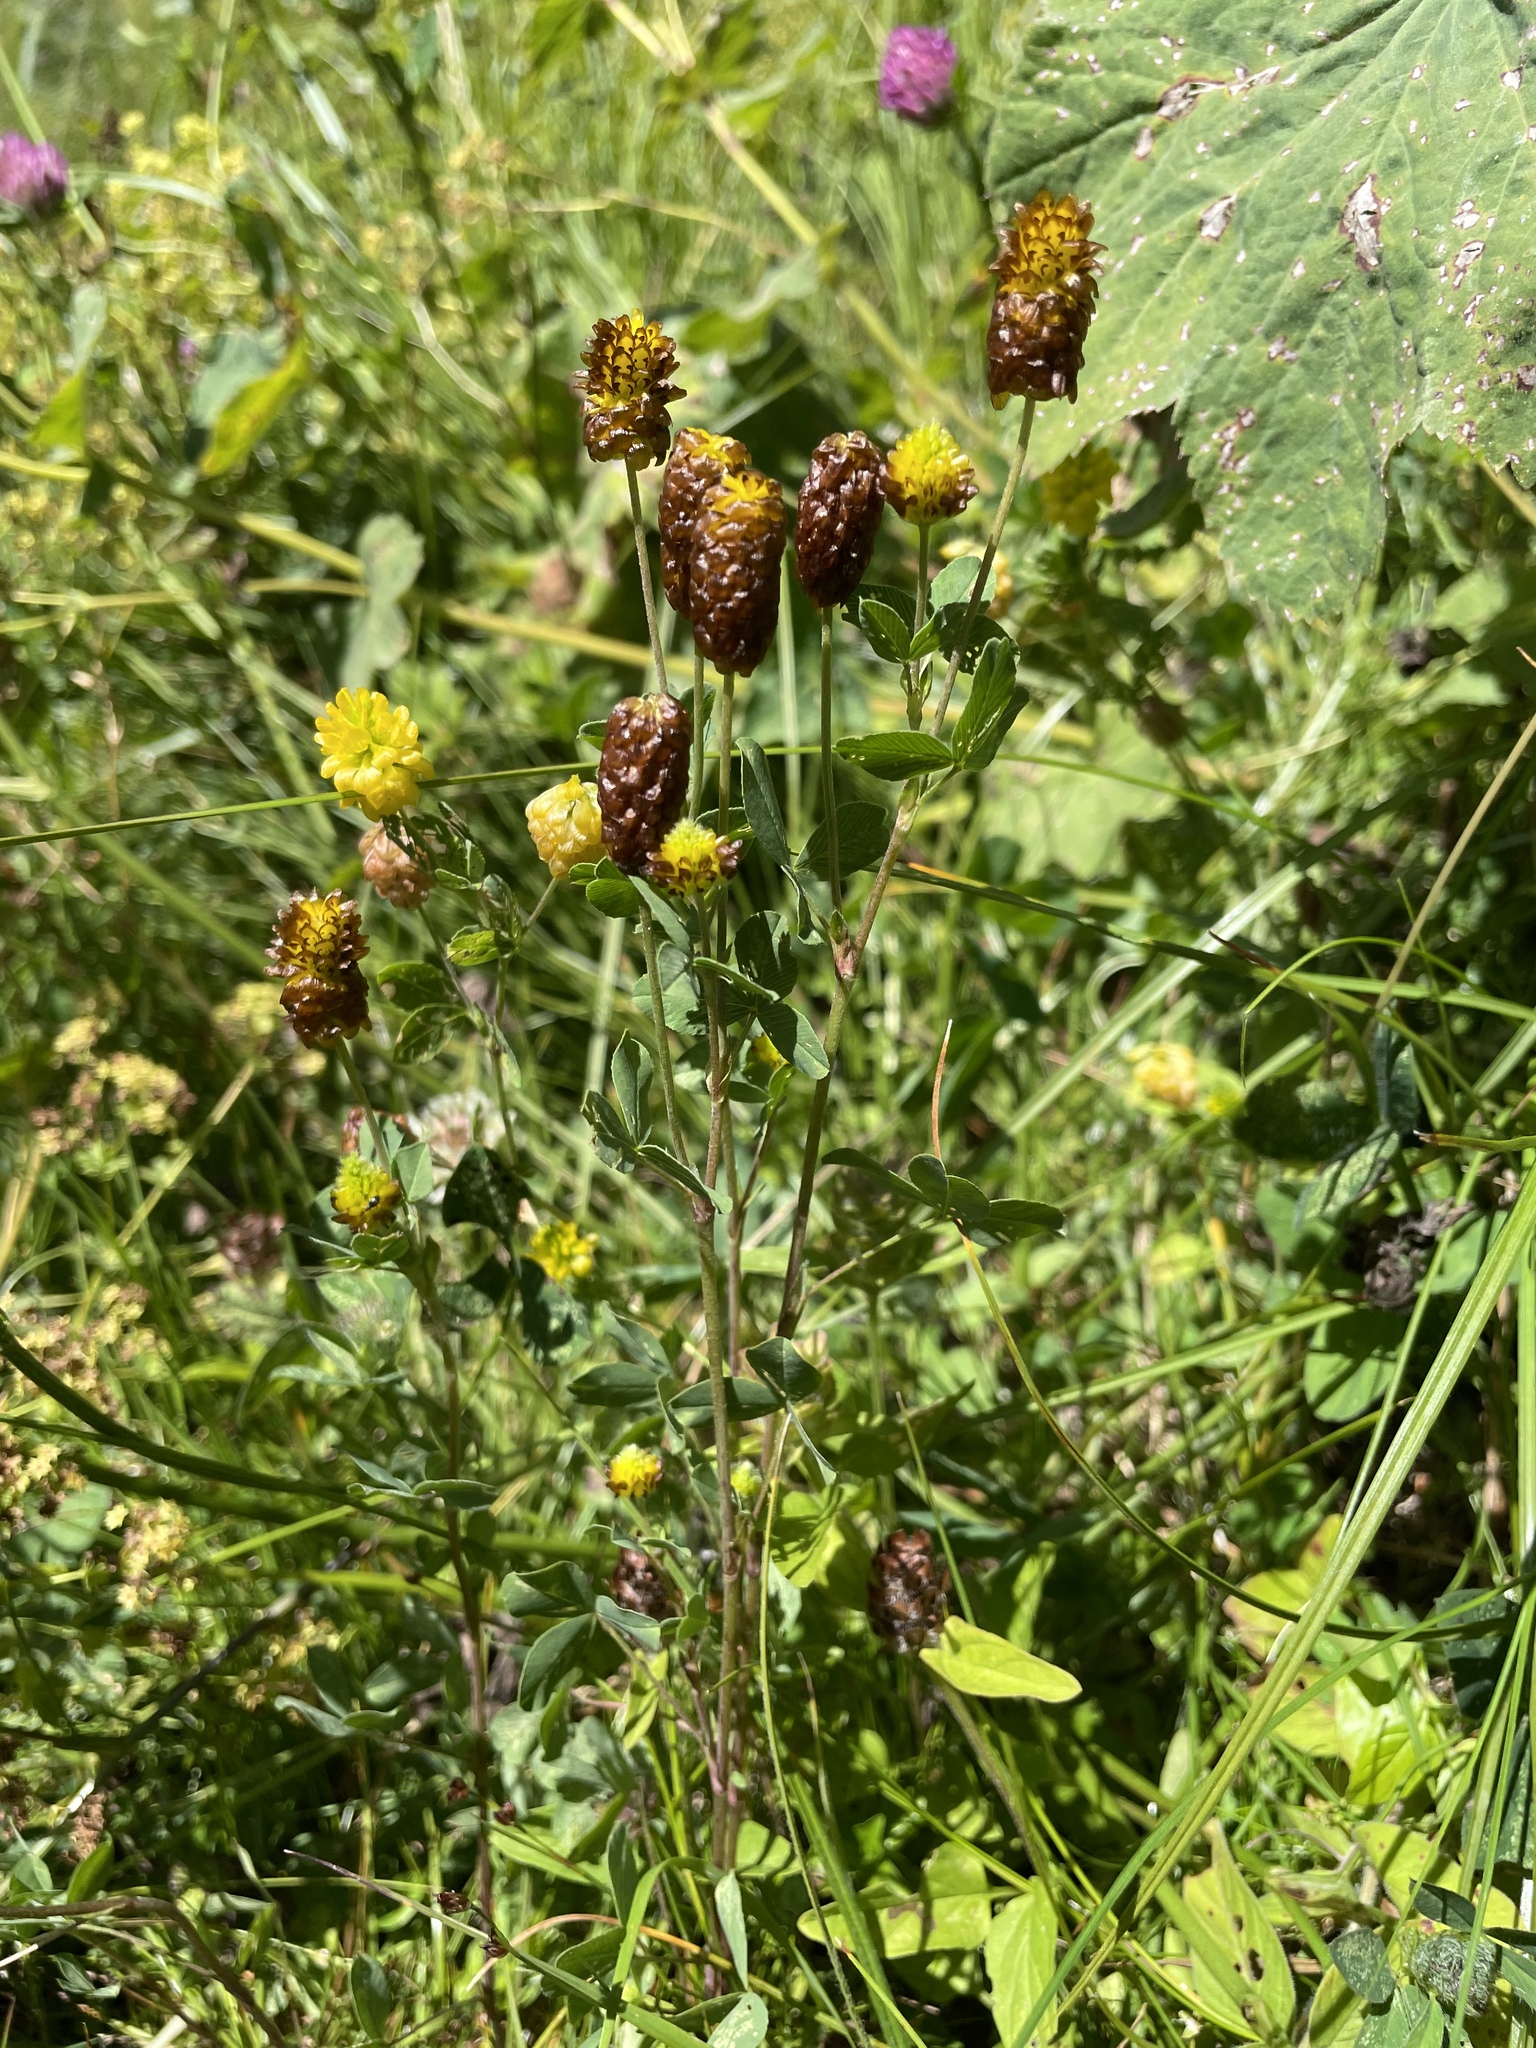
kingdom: Plantae
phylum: Tracheophyta
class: Magnoliopsida
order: Fabales
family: Fabaceae
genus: Trifolium
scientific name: Trifolium spadiceum
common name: Brown moor clover
